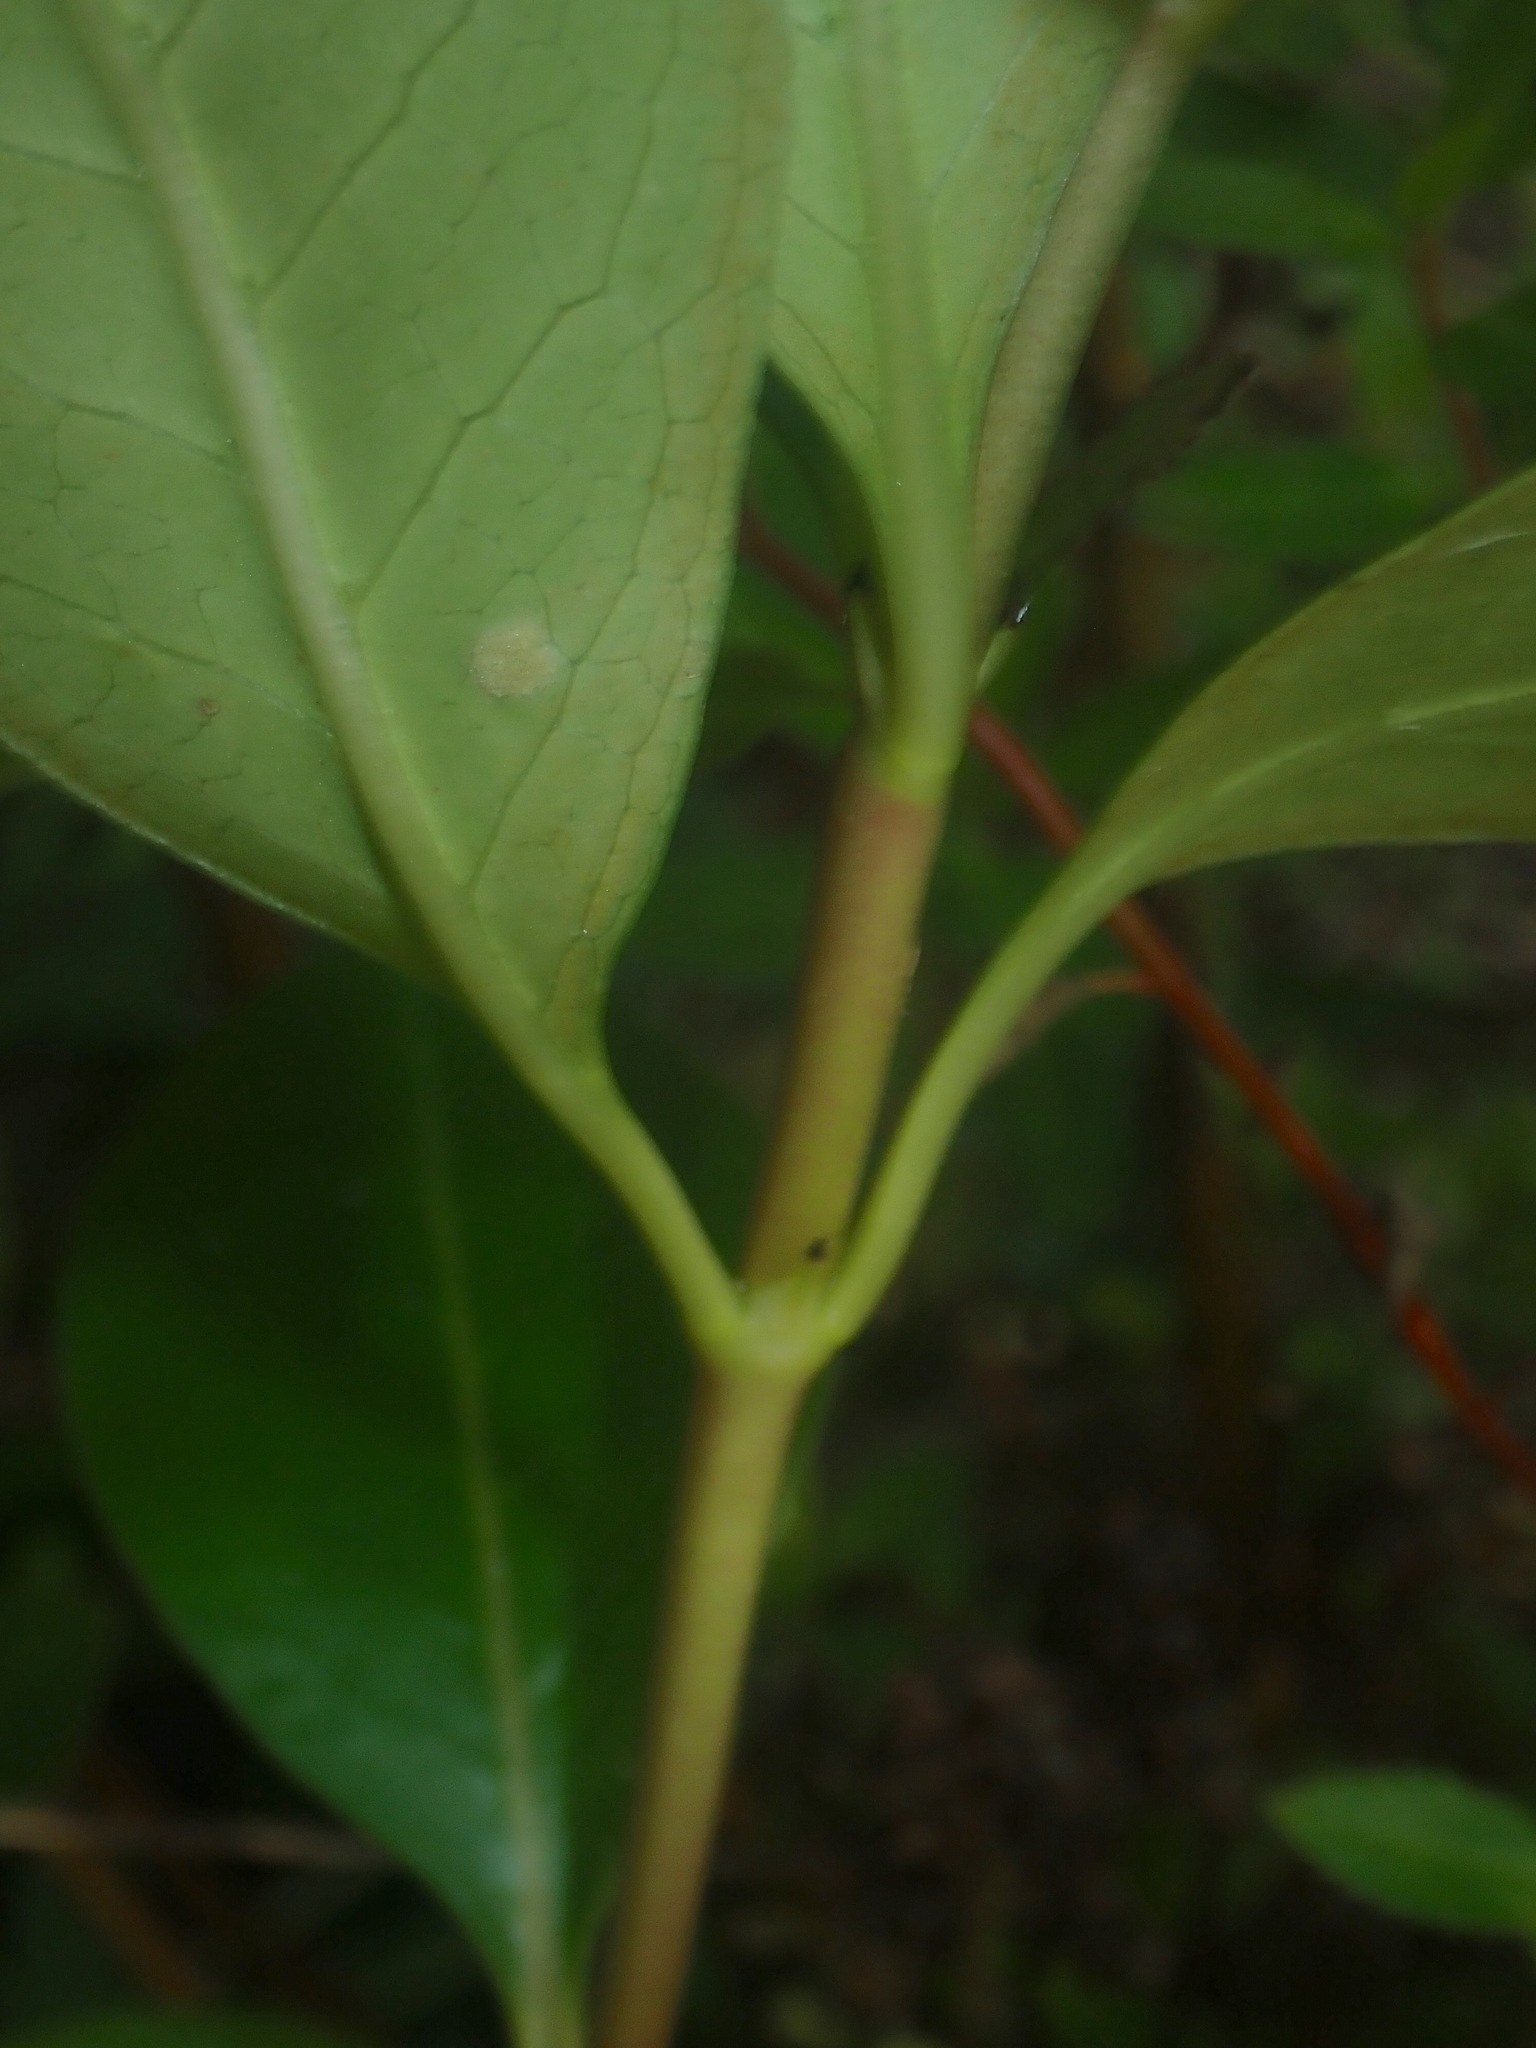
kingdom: Plantae
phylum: Tracheophyta
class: Magnoliopsida
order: Gentianales
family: Rubiaceae
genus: Coprosma
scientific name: Coprosma robusta
